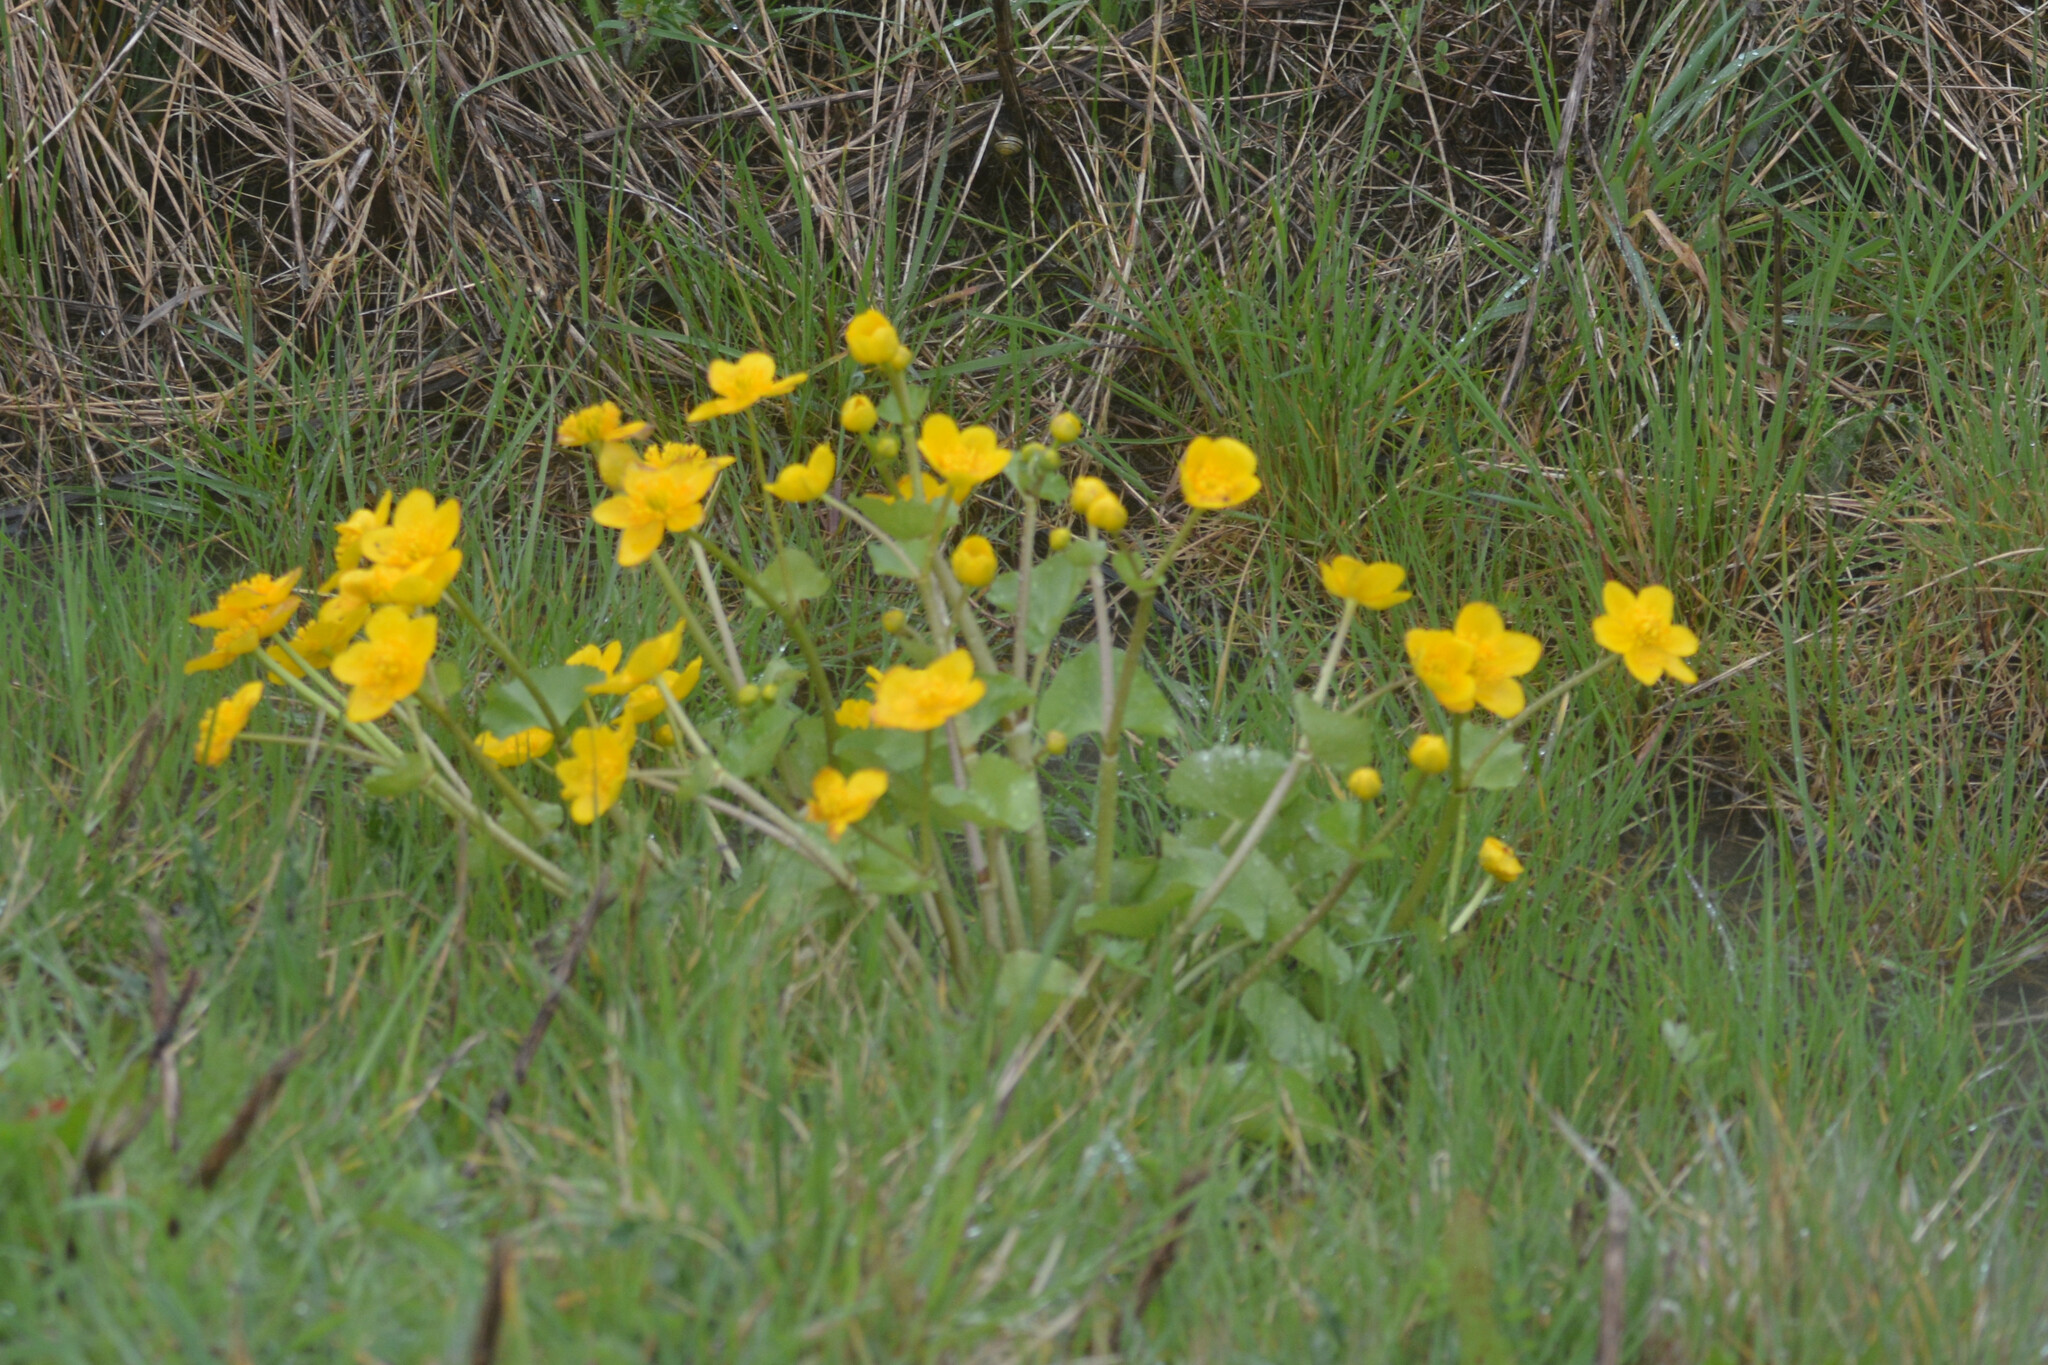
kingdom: Plantae
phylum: Tracheophyta
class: Magnoliopsida
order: Ranunculales
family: Ranunculaceae
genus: Caltha
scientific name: Caltha palustris
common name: Marsh marigold
